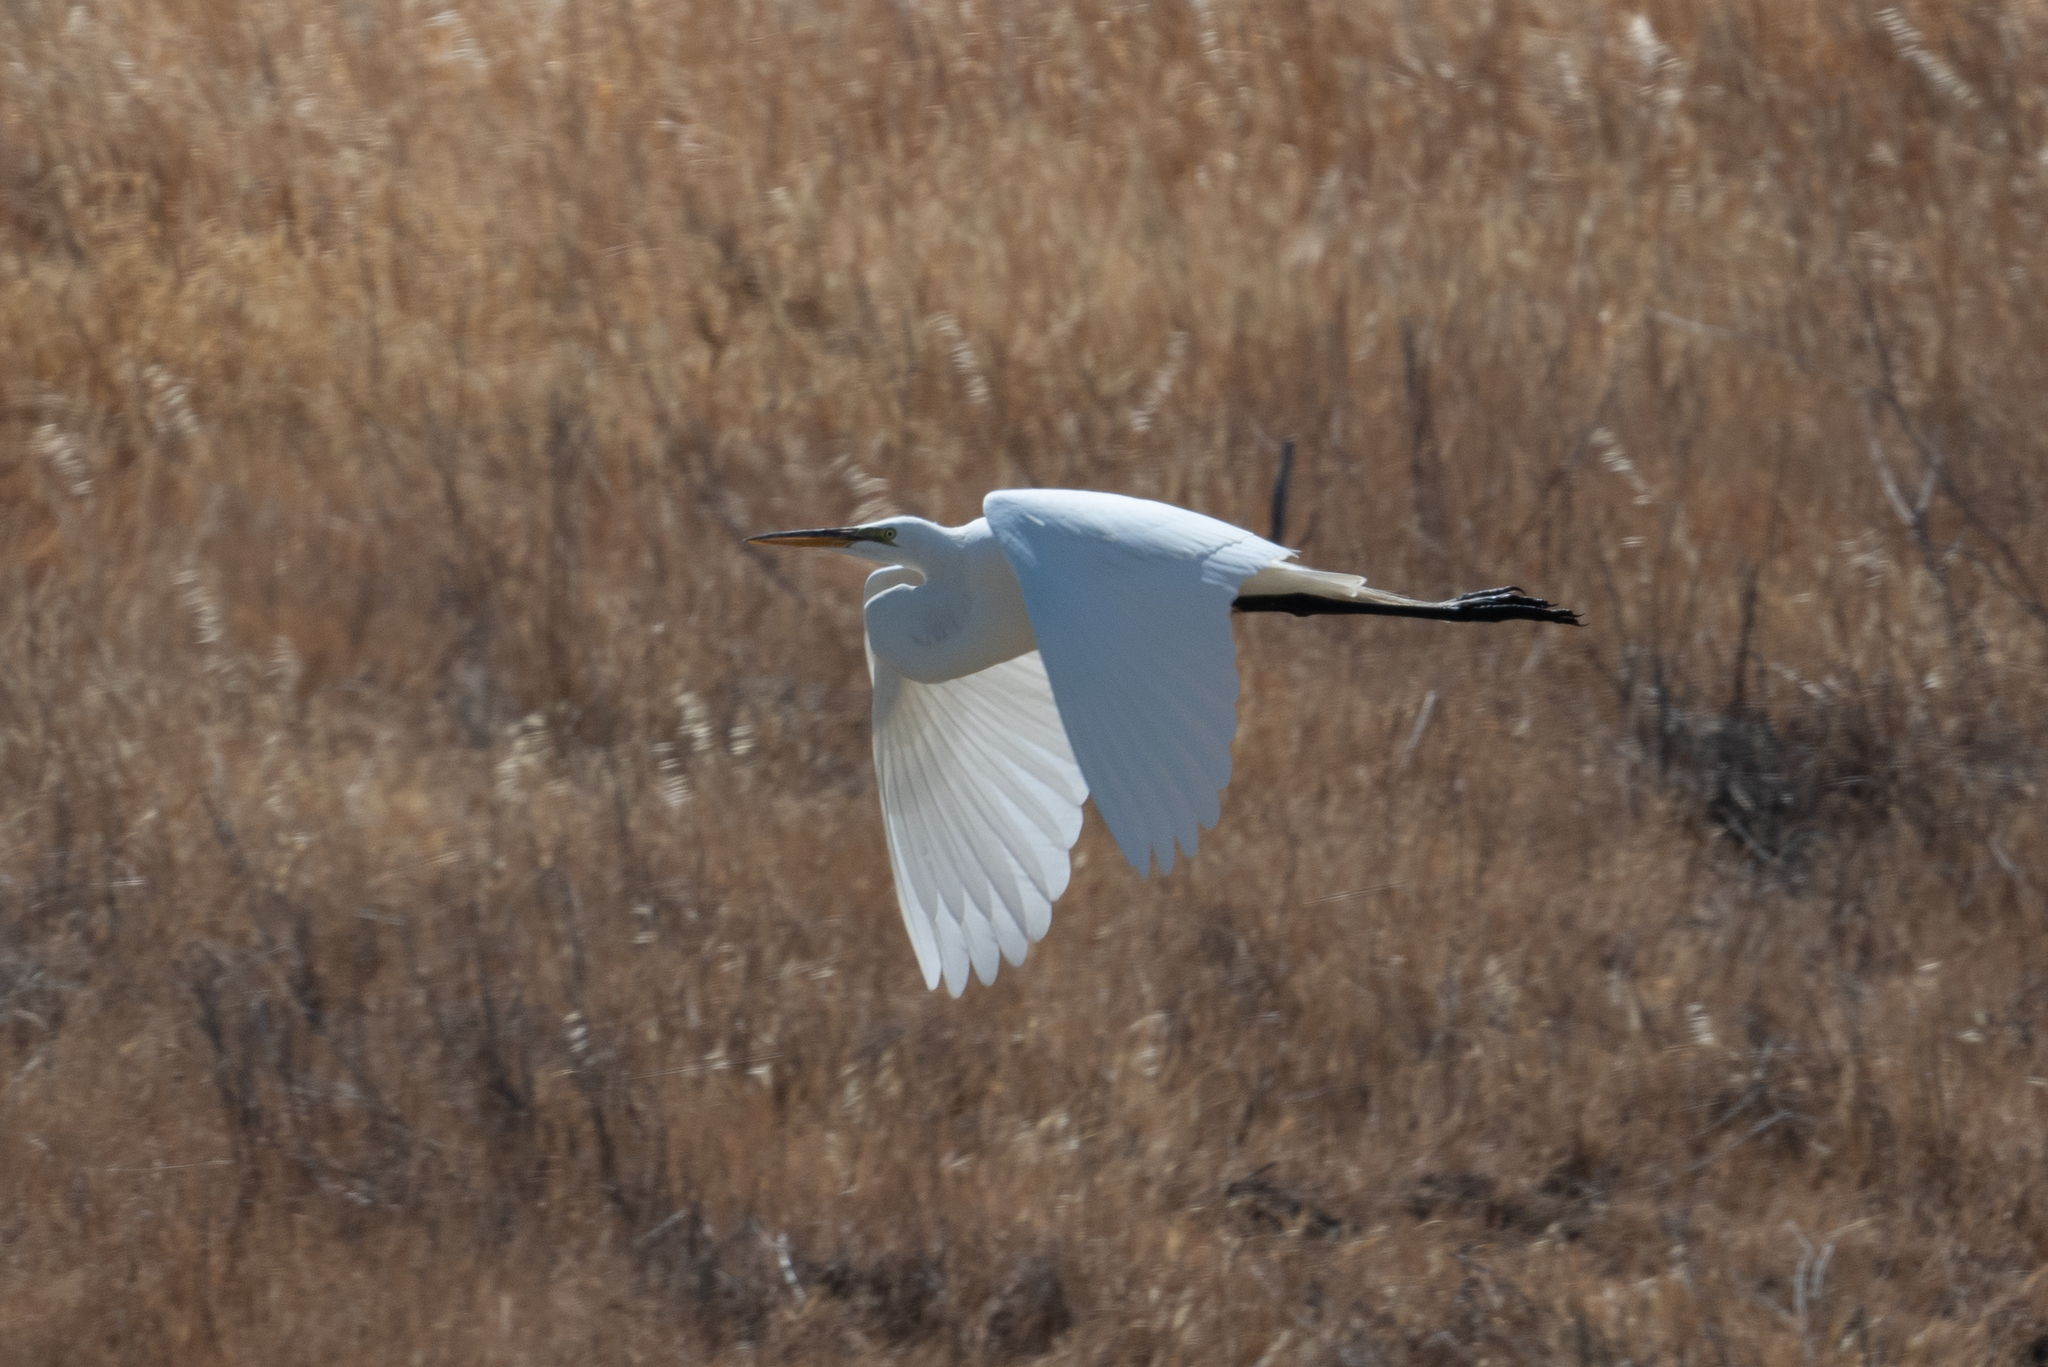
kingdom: Animalia
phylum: Chordata
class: Aves
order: Pelecaniformes
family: Ardeidae
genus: Ardea
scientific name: Ardea alba
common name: Great egret
